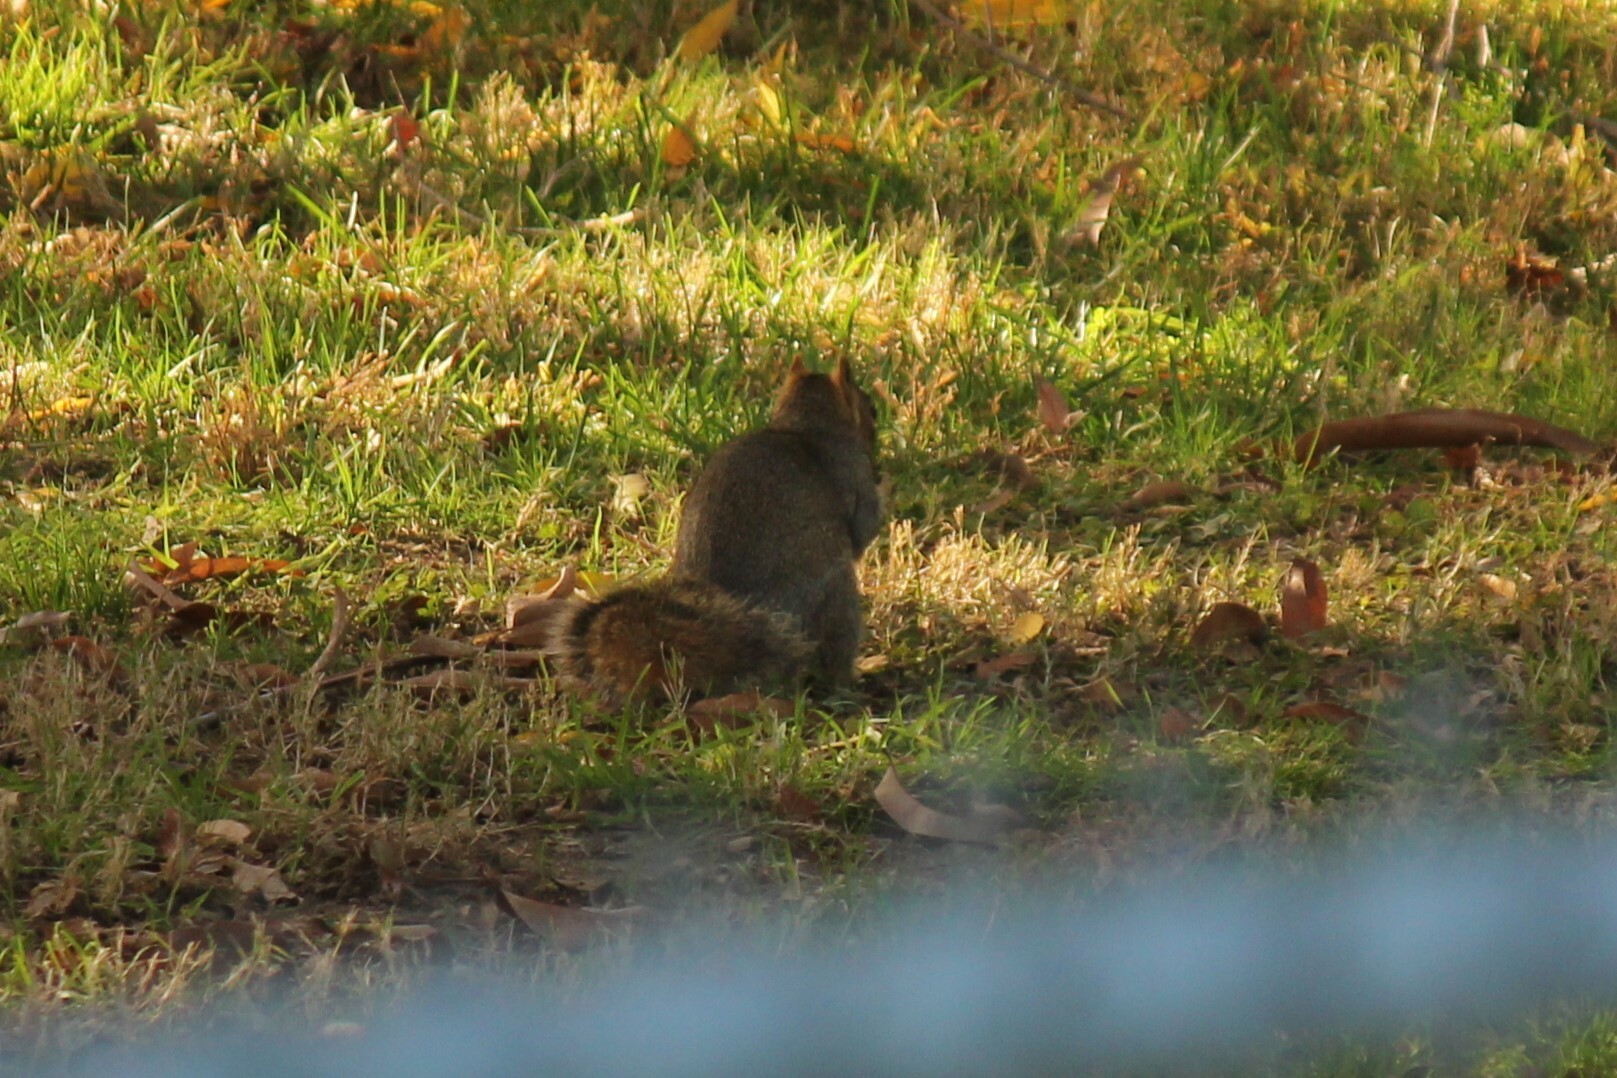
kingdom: Animalia
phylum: Chordata
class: Mammalia
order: Rodentia
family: Sciuridae
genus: Sciurus
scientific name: Sciurus niger
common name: Fox squirrel
